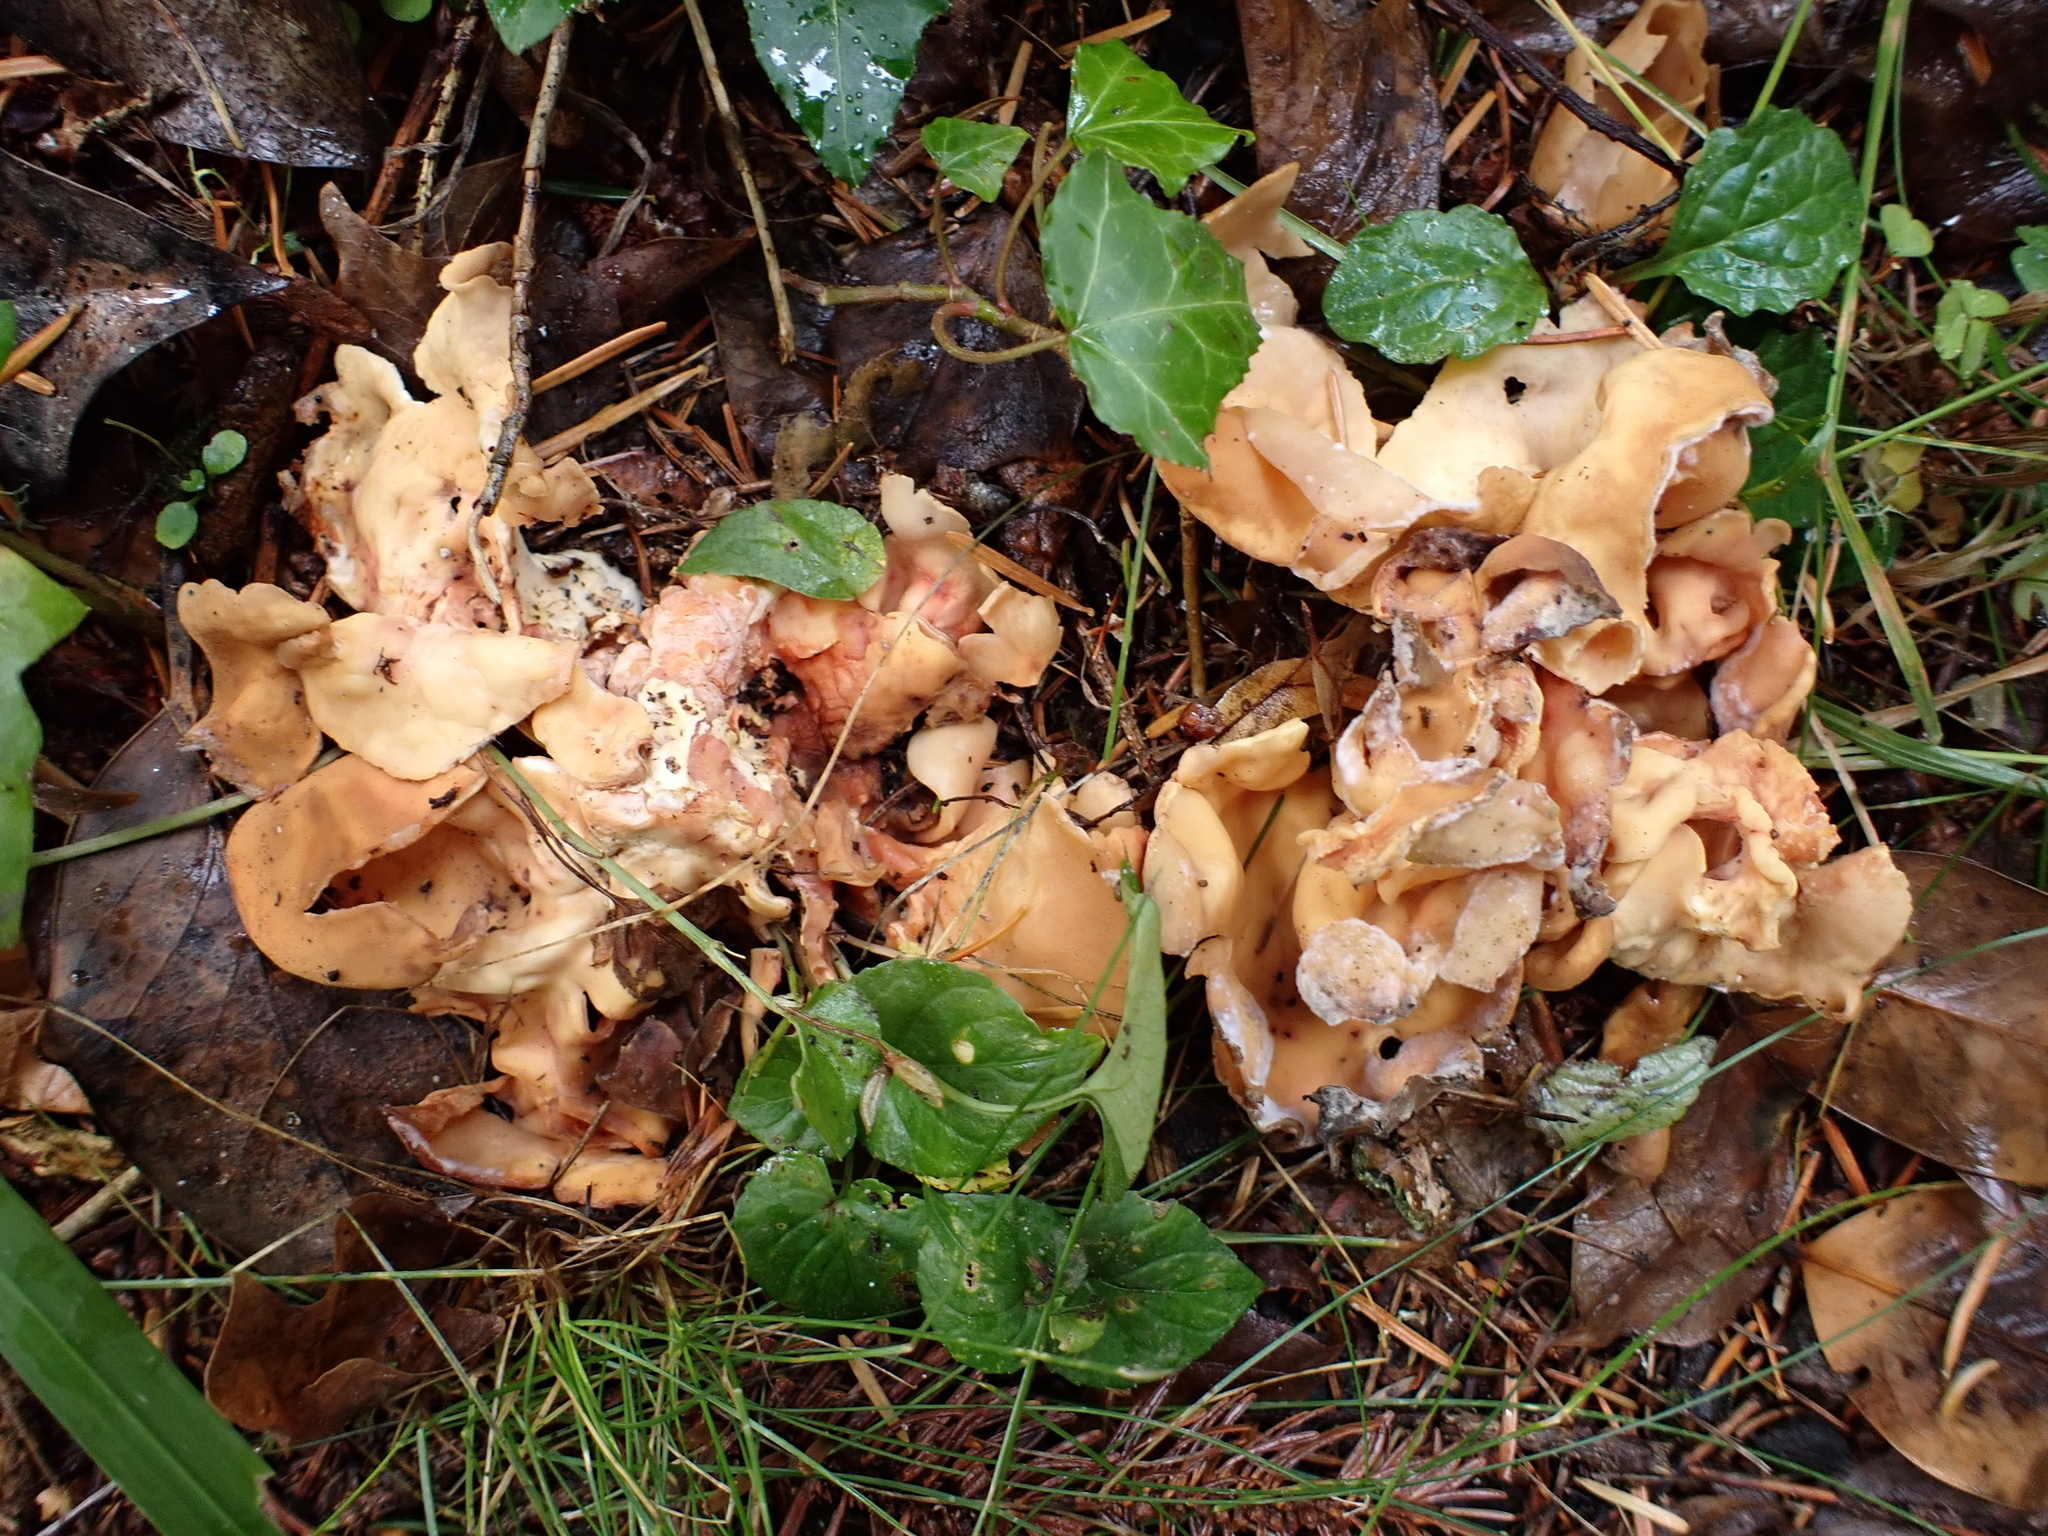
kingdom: Fungi
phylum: Ascomycota
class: Pezizomycetes
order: Pezizales
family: Otideaceae
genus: Otidea
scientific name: Otidea onotica
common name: Hare's ear
